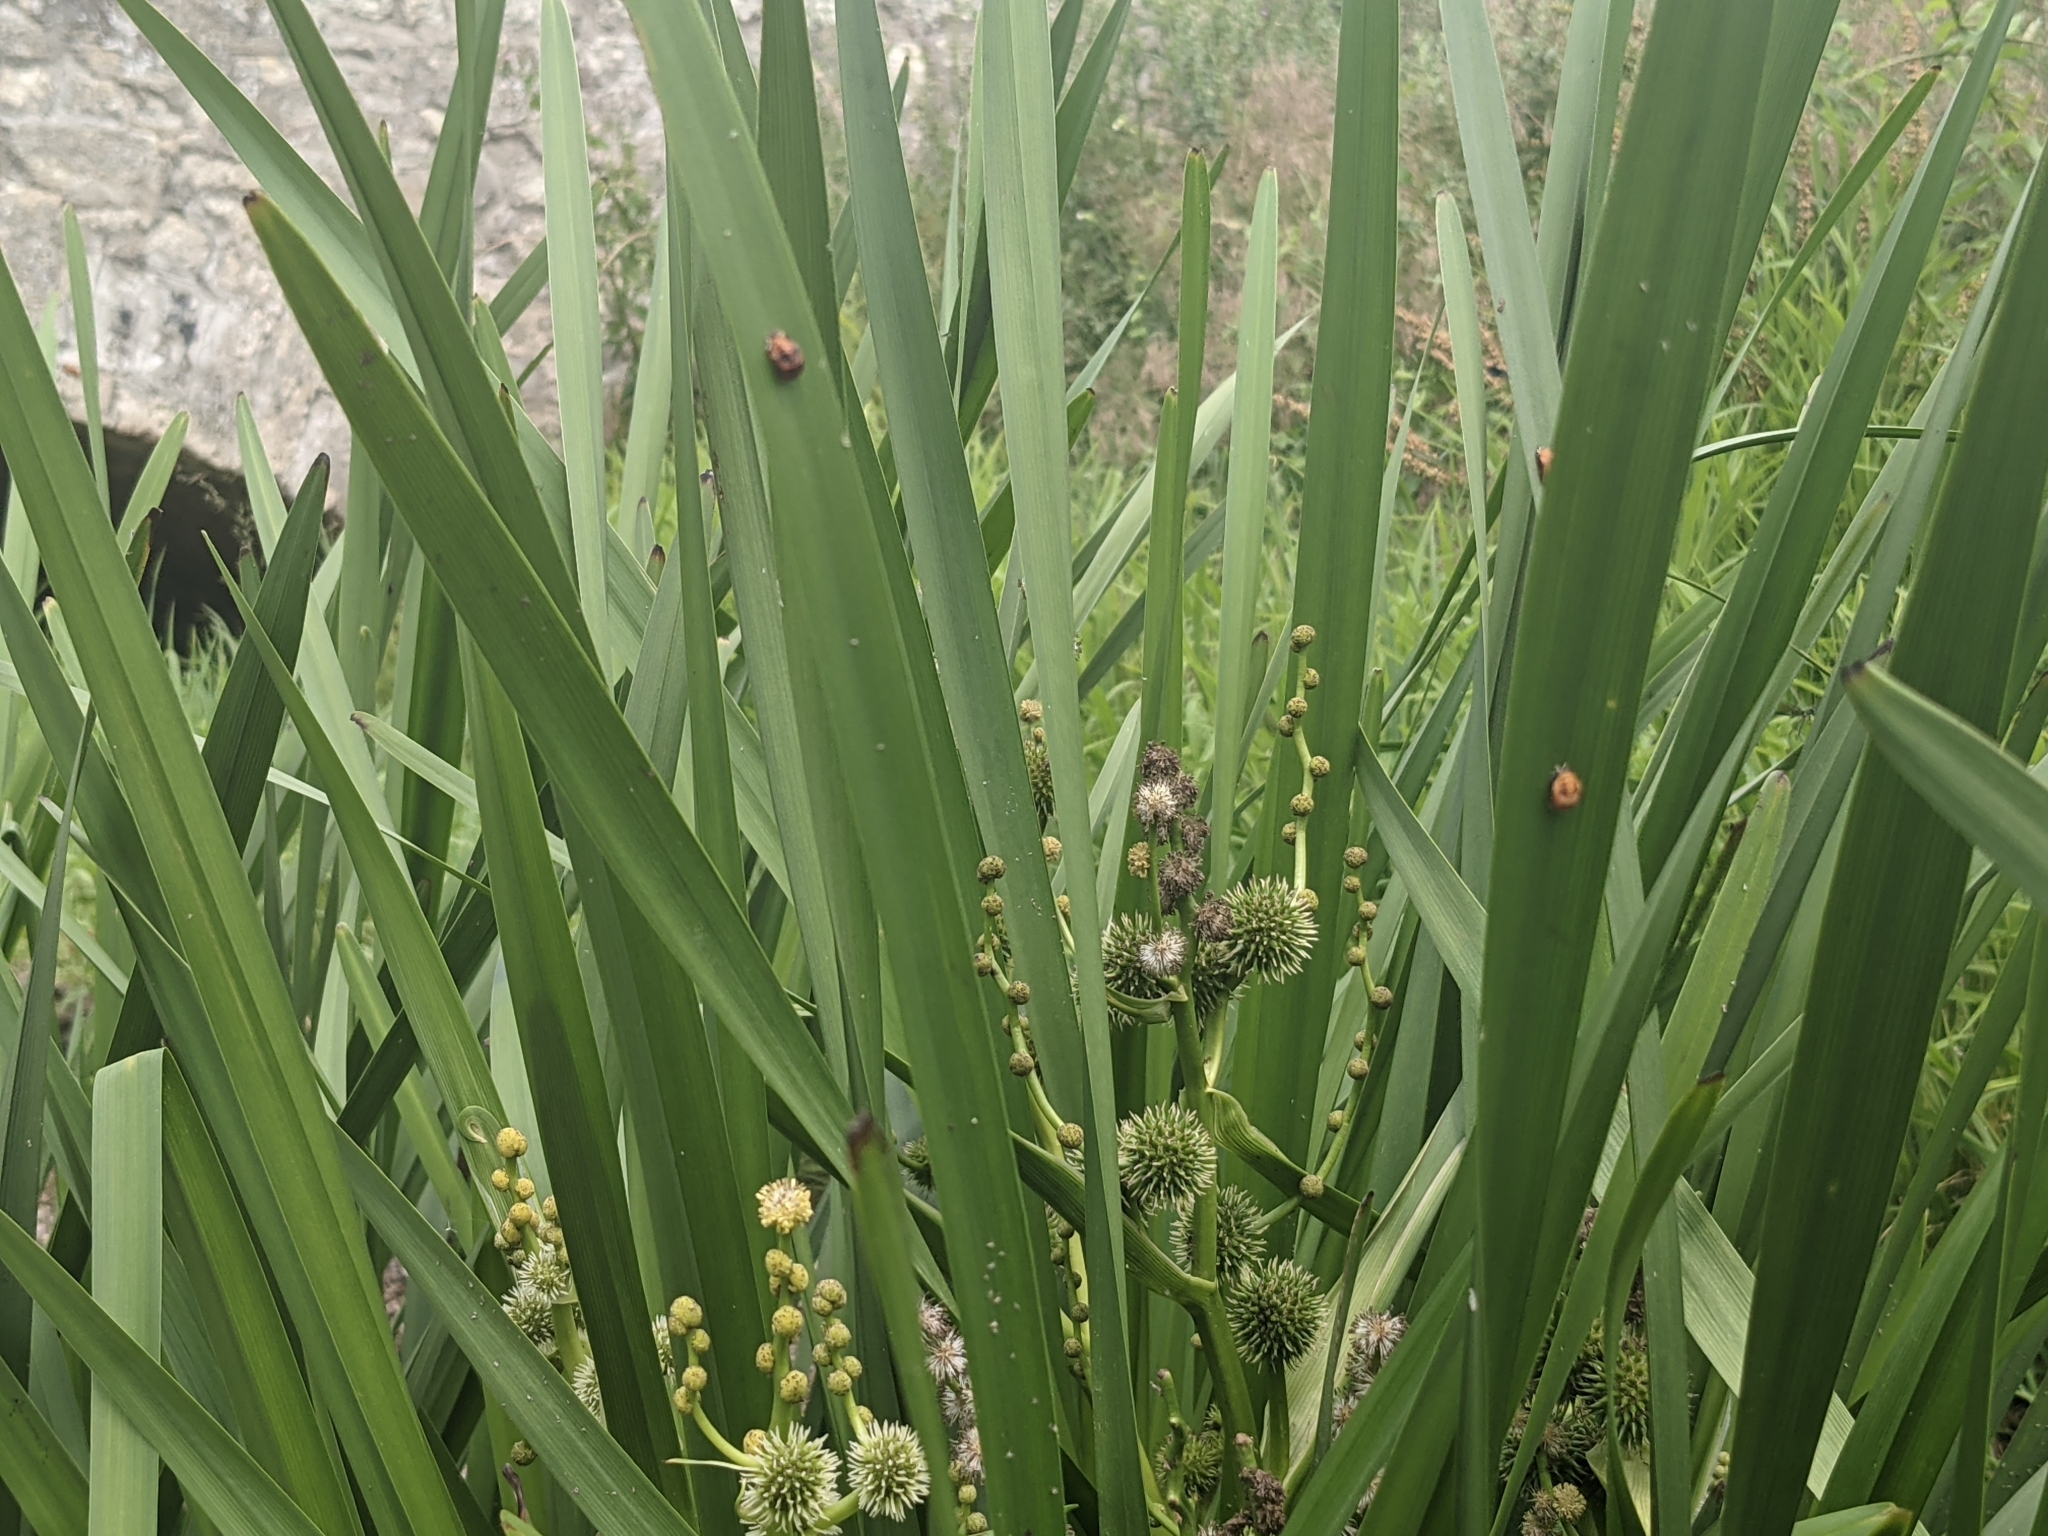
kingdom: Plantae
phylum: Tracheophyta
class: Liliopsida
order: Poales
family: Typhaceae
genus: Sparganium
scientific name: Sparganium erectum
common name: Branched bur-reed
